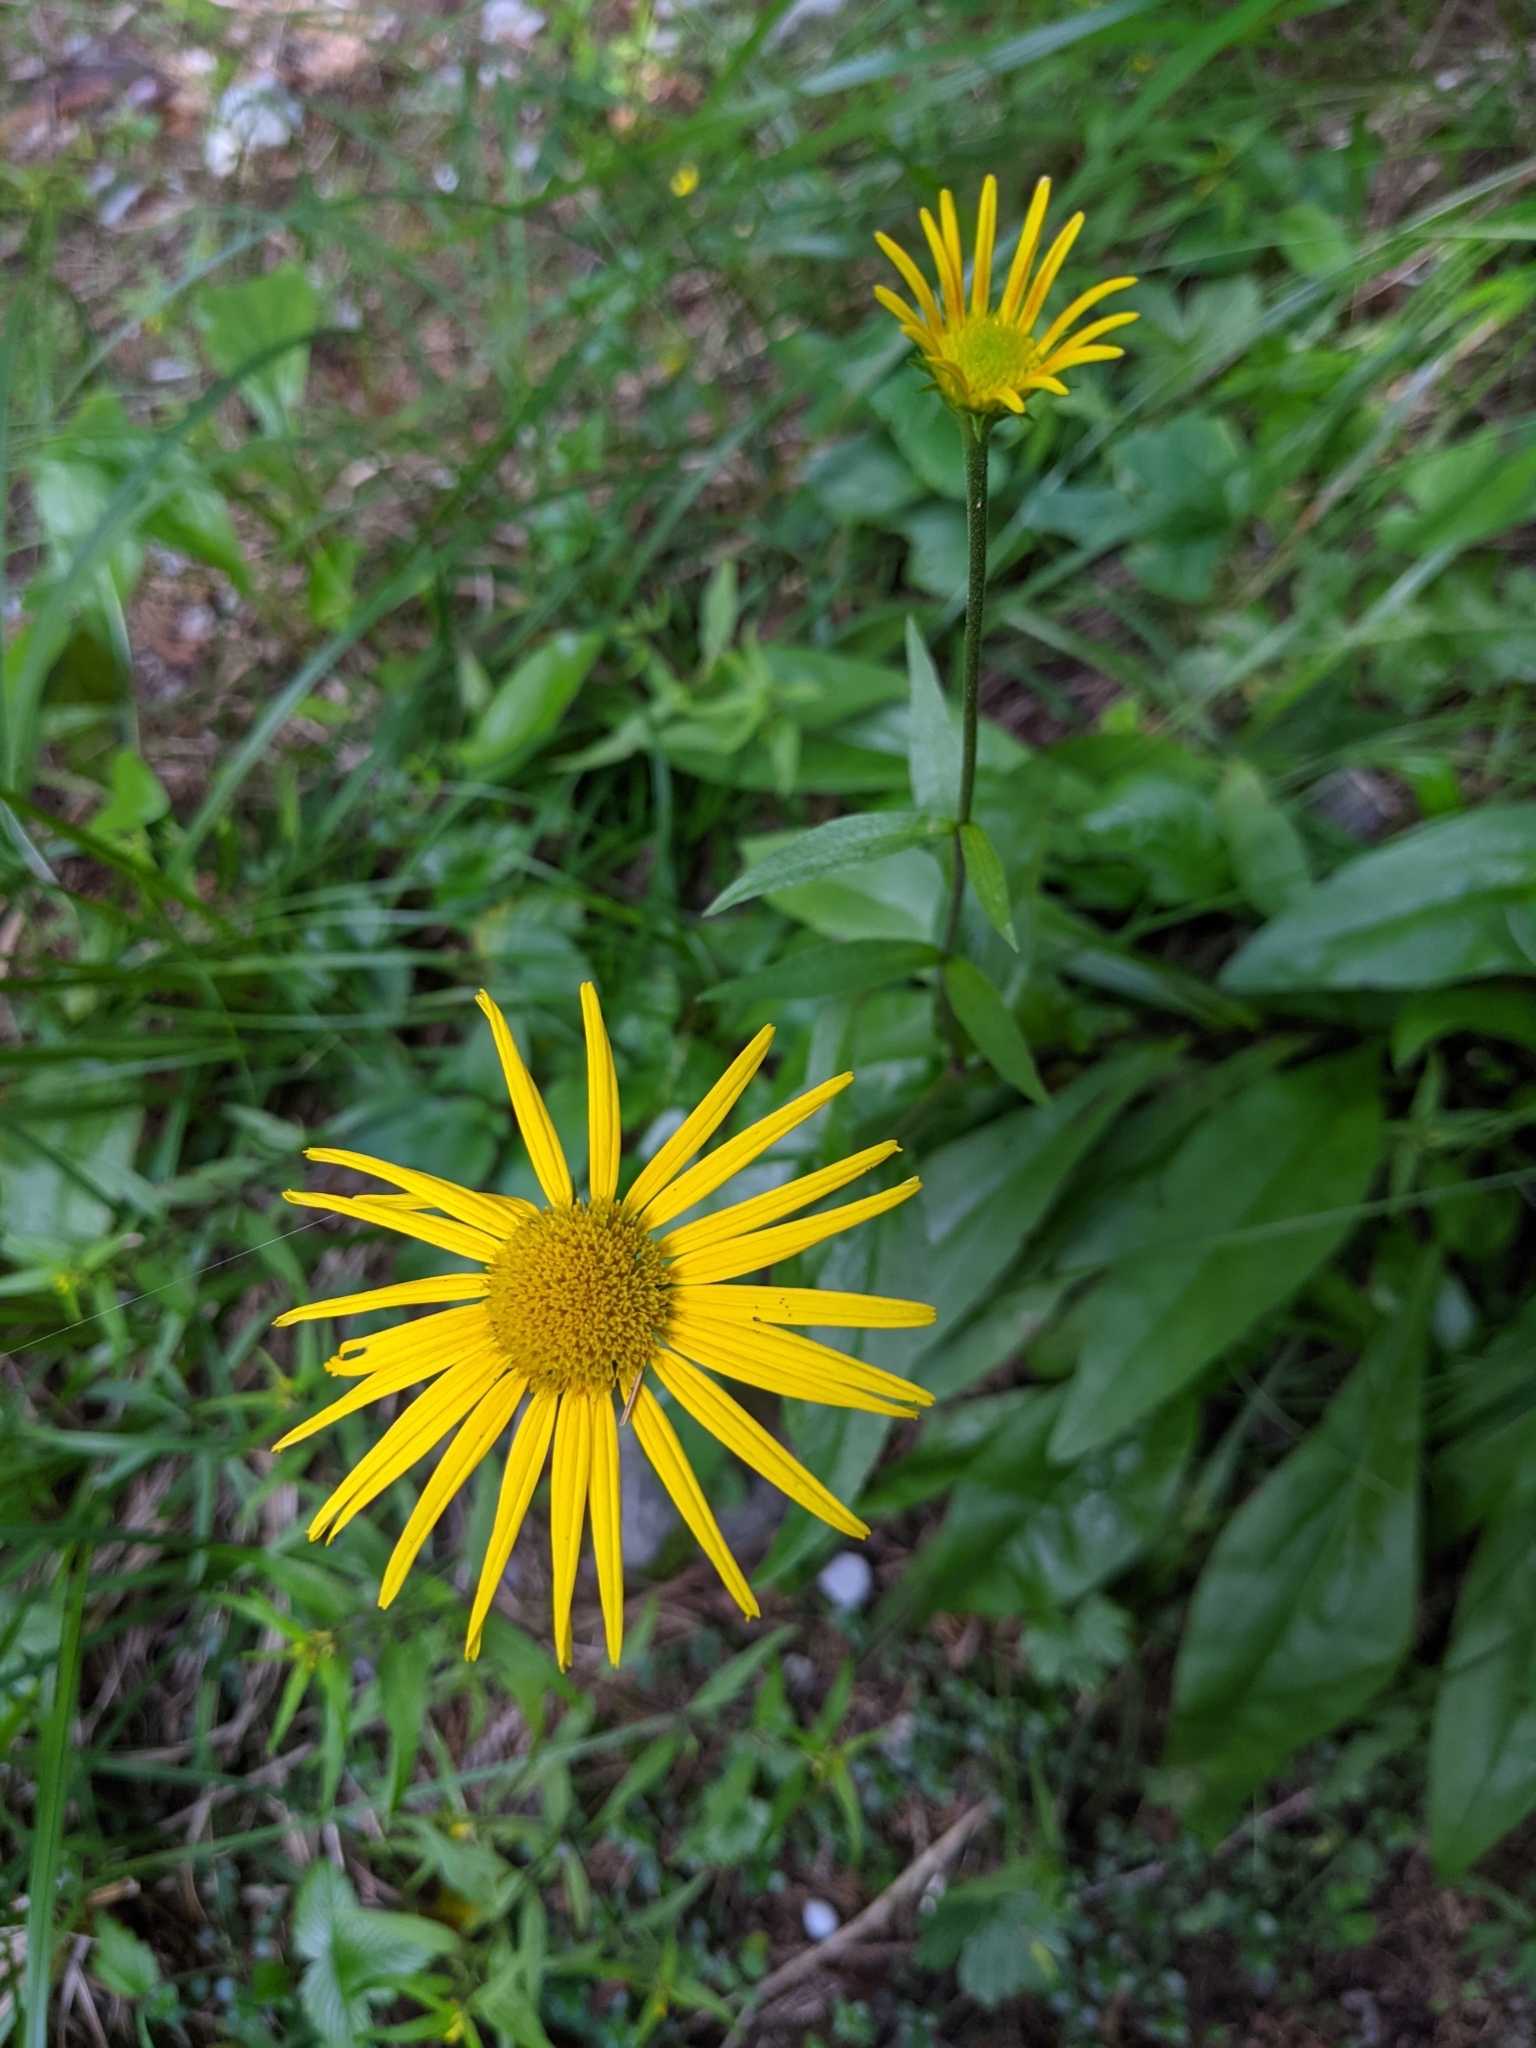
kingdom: Plantae
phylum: Tracheophyta
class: Magnoliopsida
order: Asterales
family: Asteraceae
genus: Buphthalmum
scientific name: Buphthalmum salicifolium
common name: Willow-leaved yellow-oxeye
